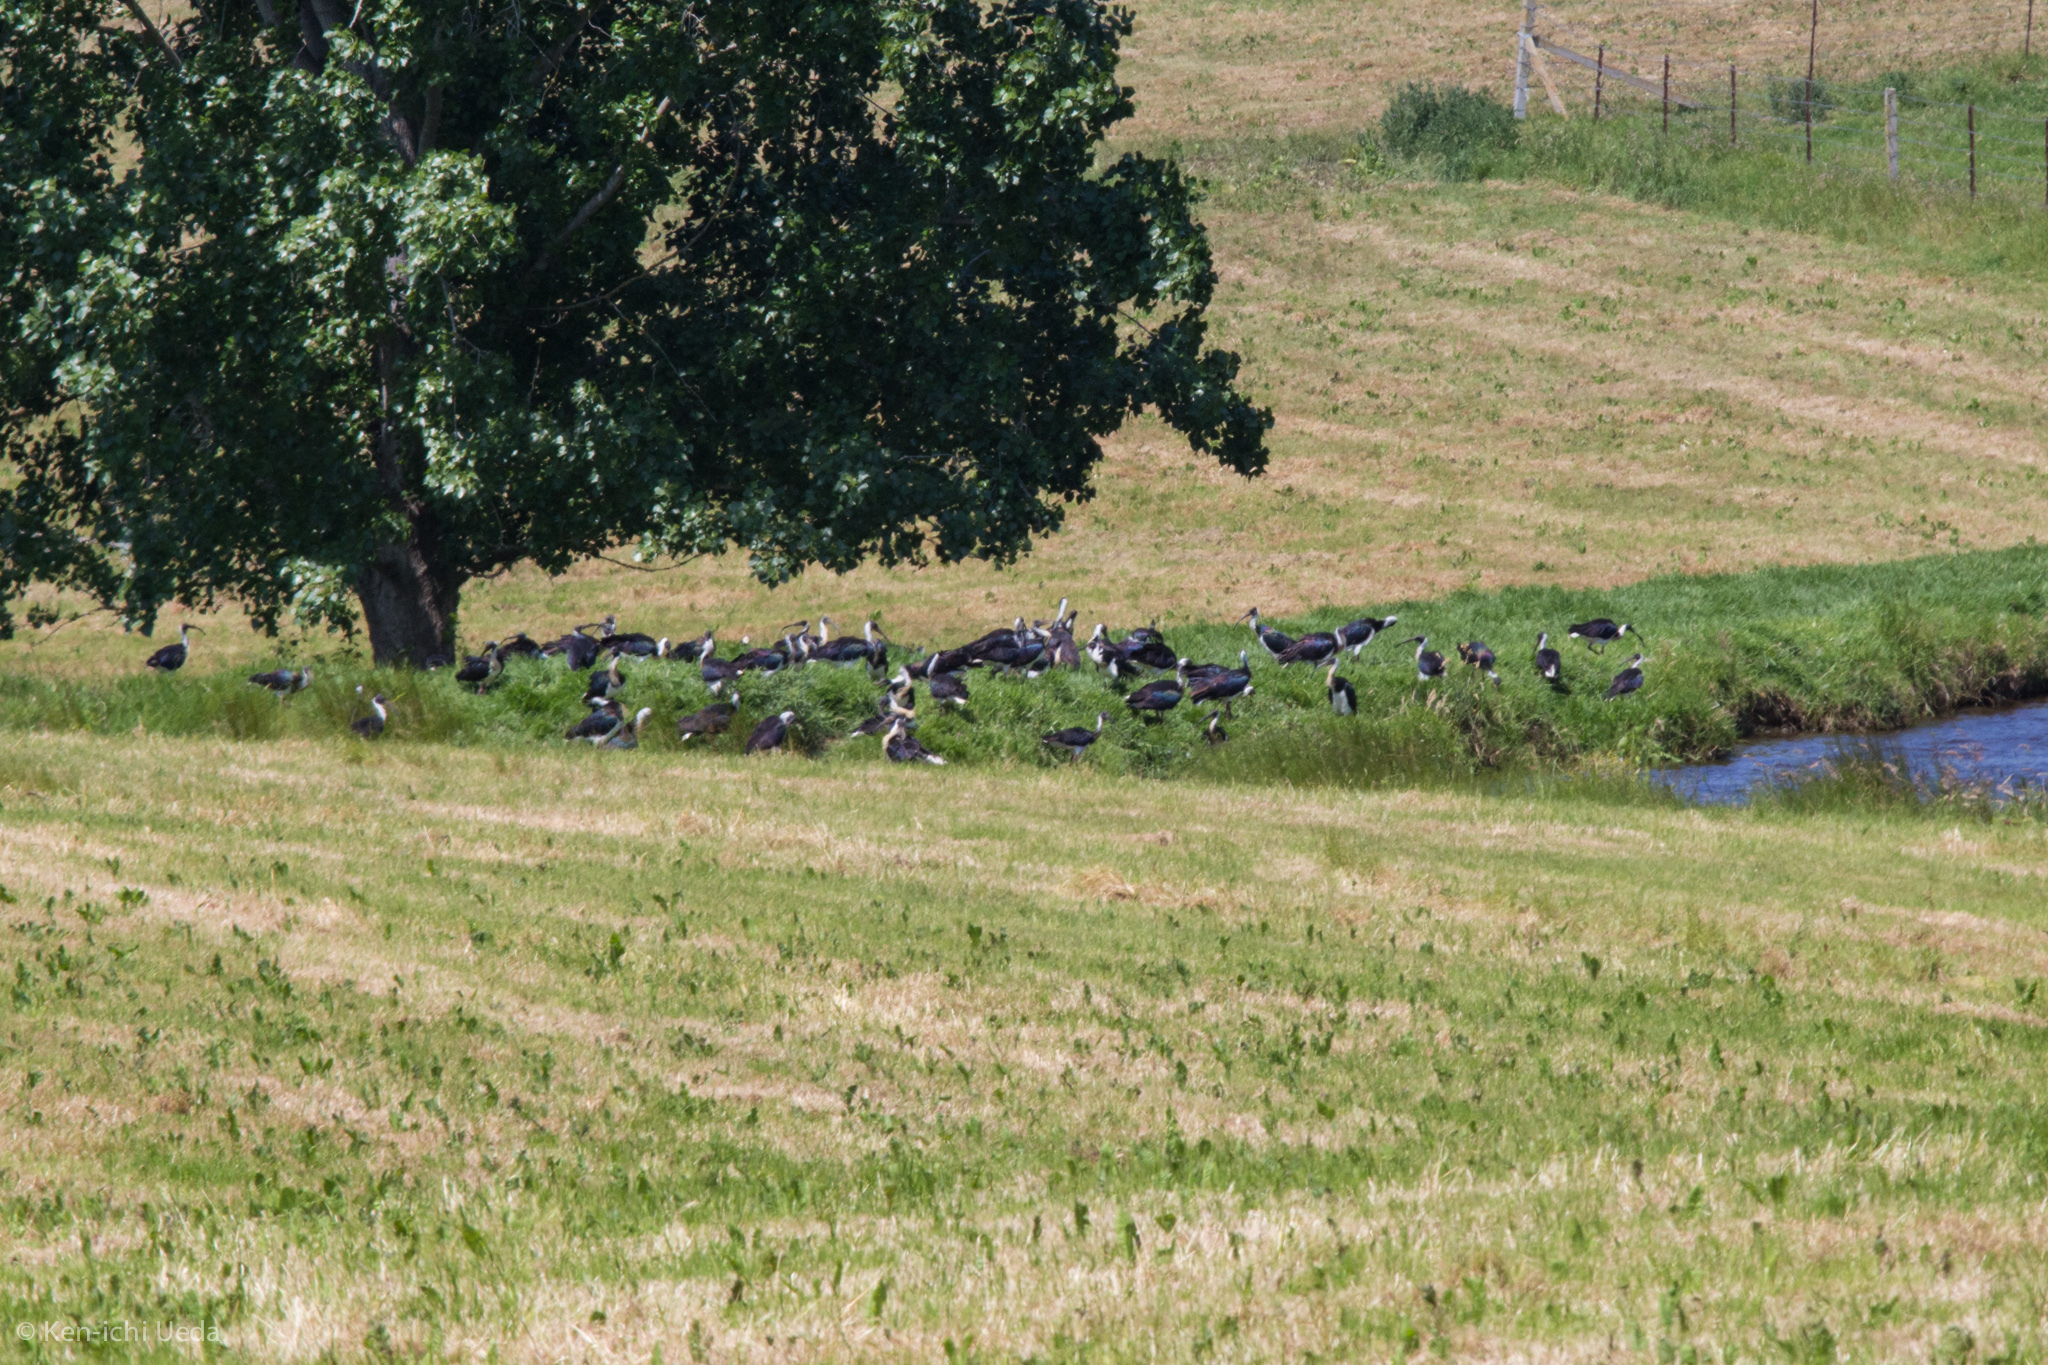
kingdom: Animalia
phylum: Chordata
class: Aves
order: Pelecaniformes
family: Threskiornithidae
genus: Threskiornis
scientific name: Threskiornis spinicollis
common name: Straw-necked ibis
